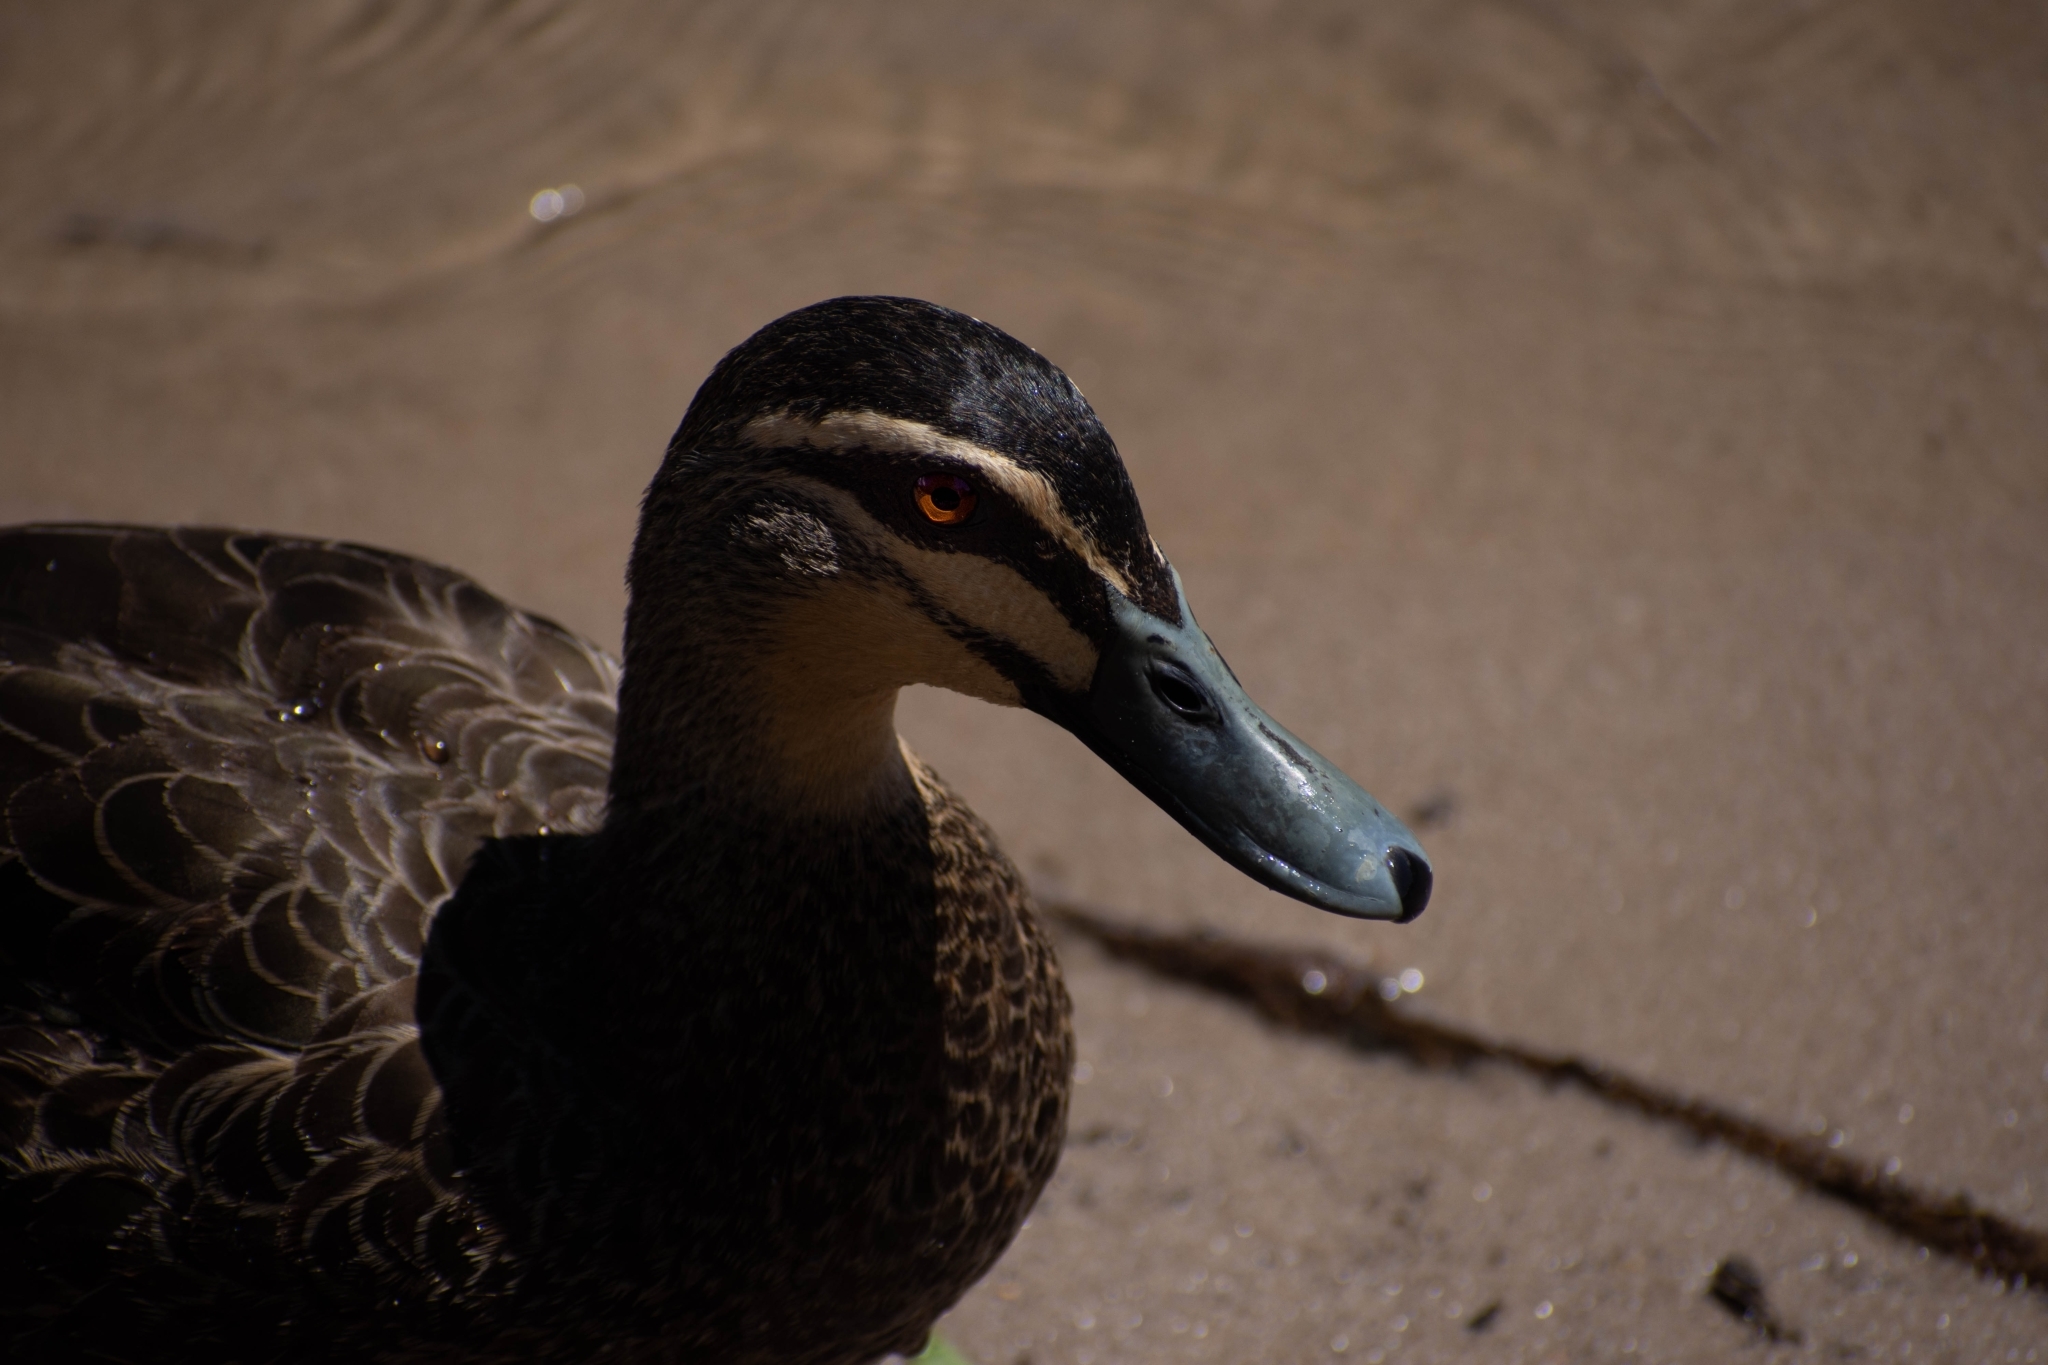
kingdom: Animalia
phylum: Chordata
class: Aves
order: Anseriformes
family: Anatidae
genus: Anas
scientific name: Anas superciliosa
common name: Pacific black duck
